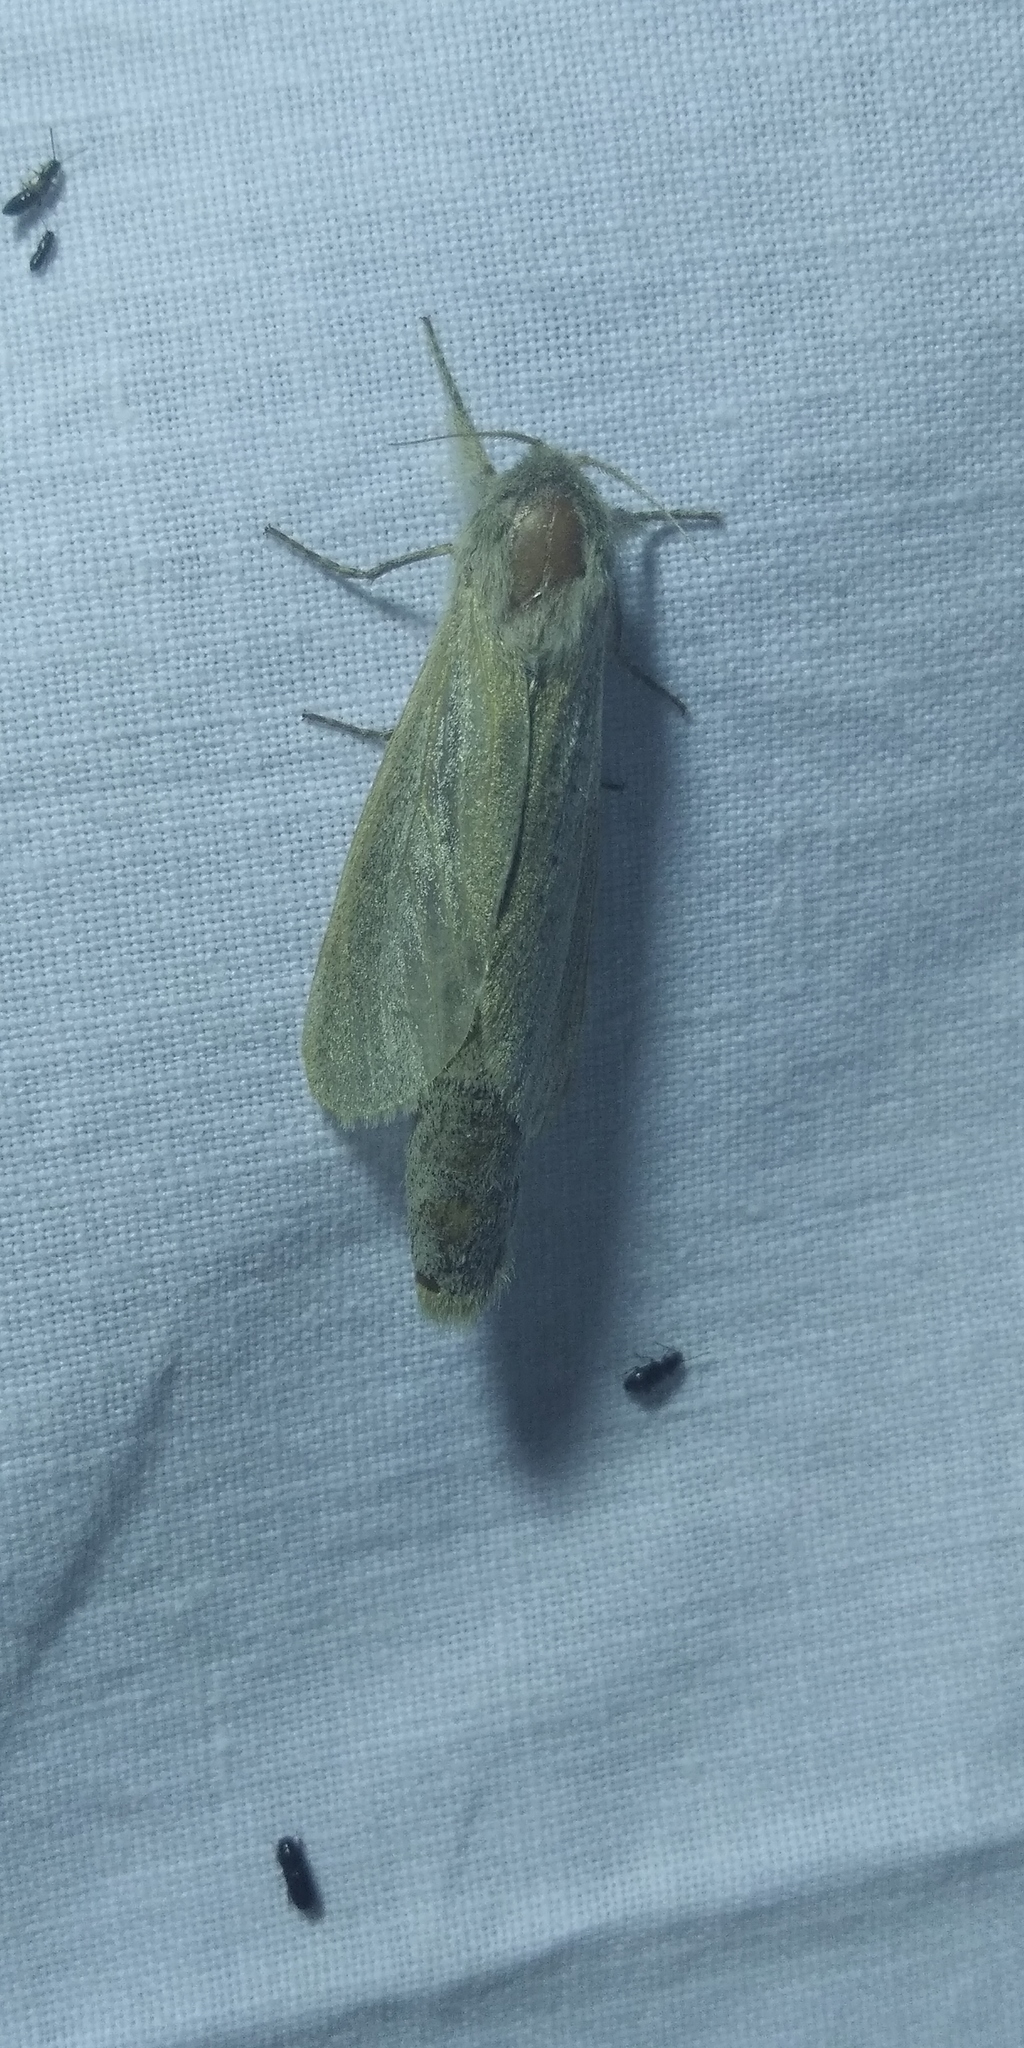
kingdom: Animalia
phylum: Arthropoda
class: Insecta
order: Lepidoptera
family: Cossidae
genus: Phragmataecia
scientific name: Phragmataecia castaneae
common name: Reed leopard
